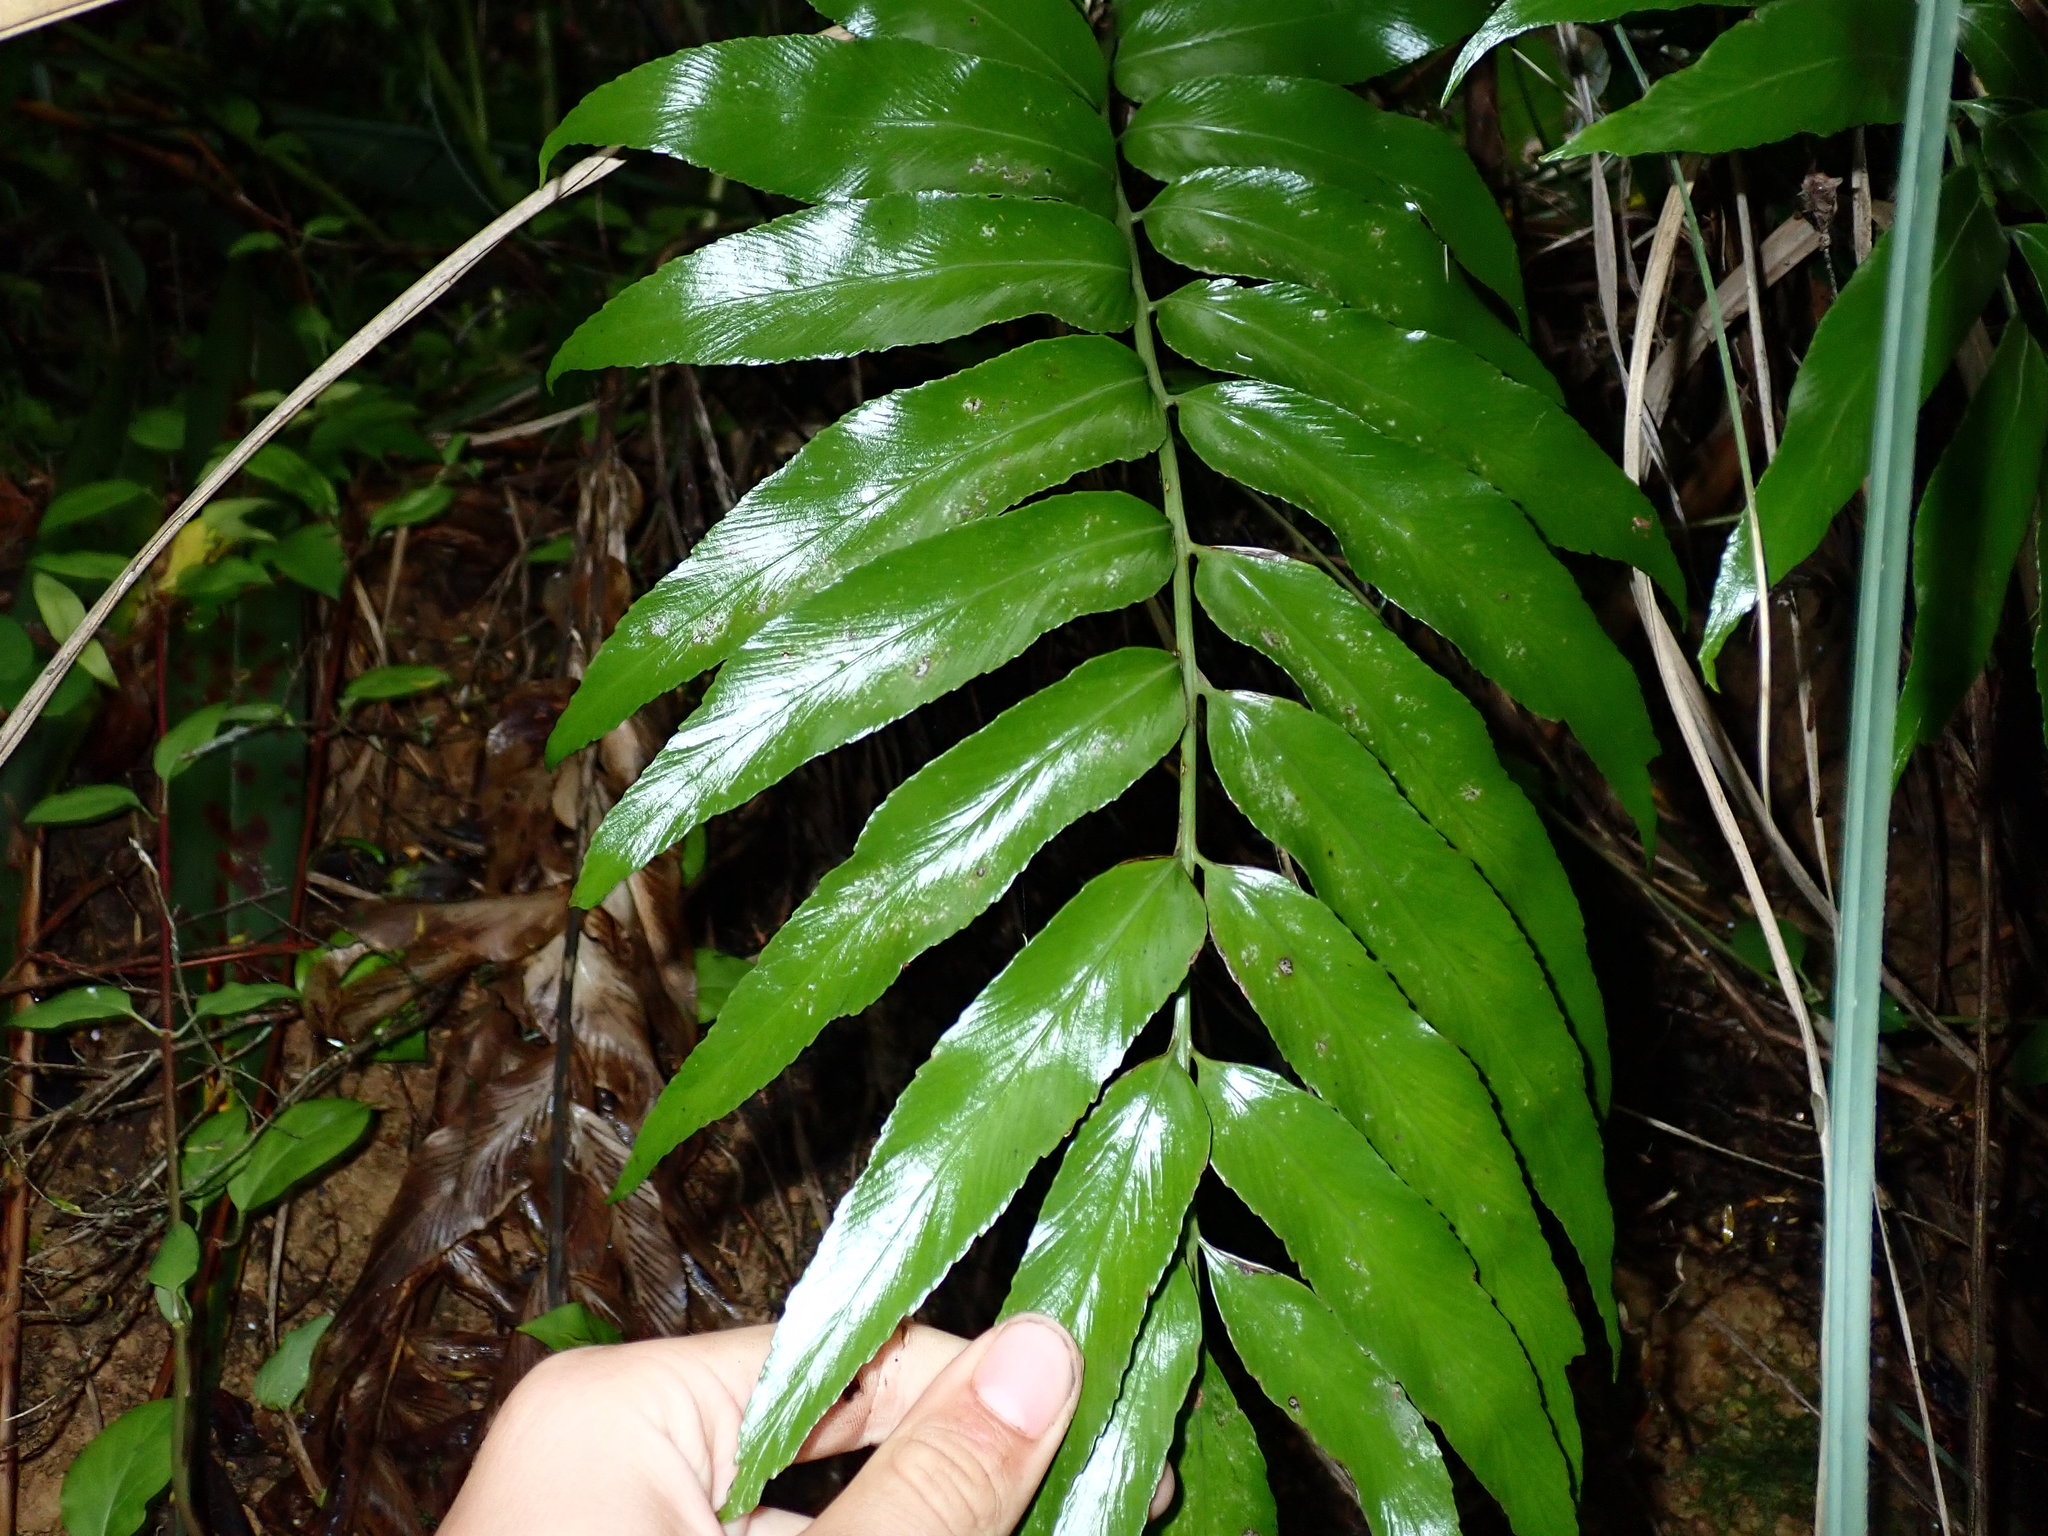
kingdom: Plantae
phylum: Tracheophyta
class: Polypodiopsida
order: Polypodiales
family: Aspleniaceae
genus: Asplenium
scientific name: Asplenium oblongifolium
